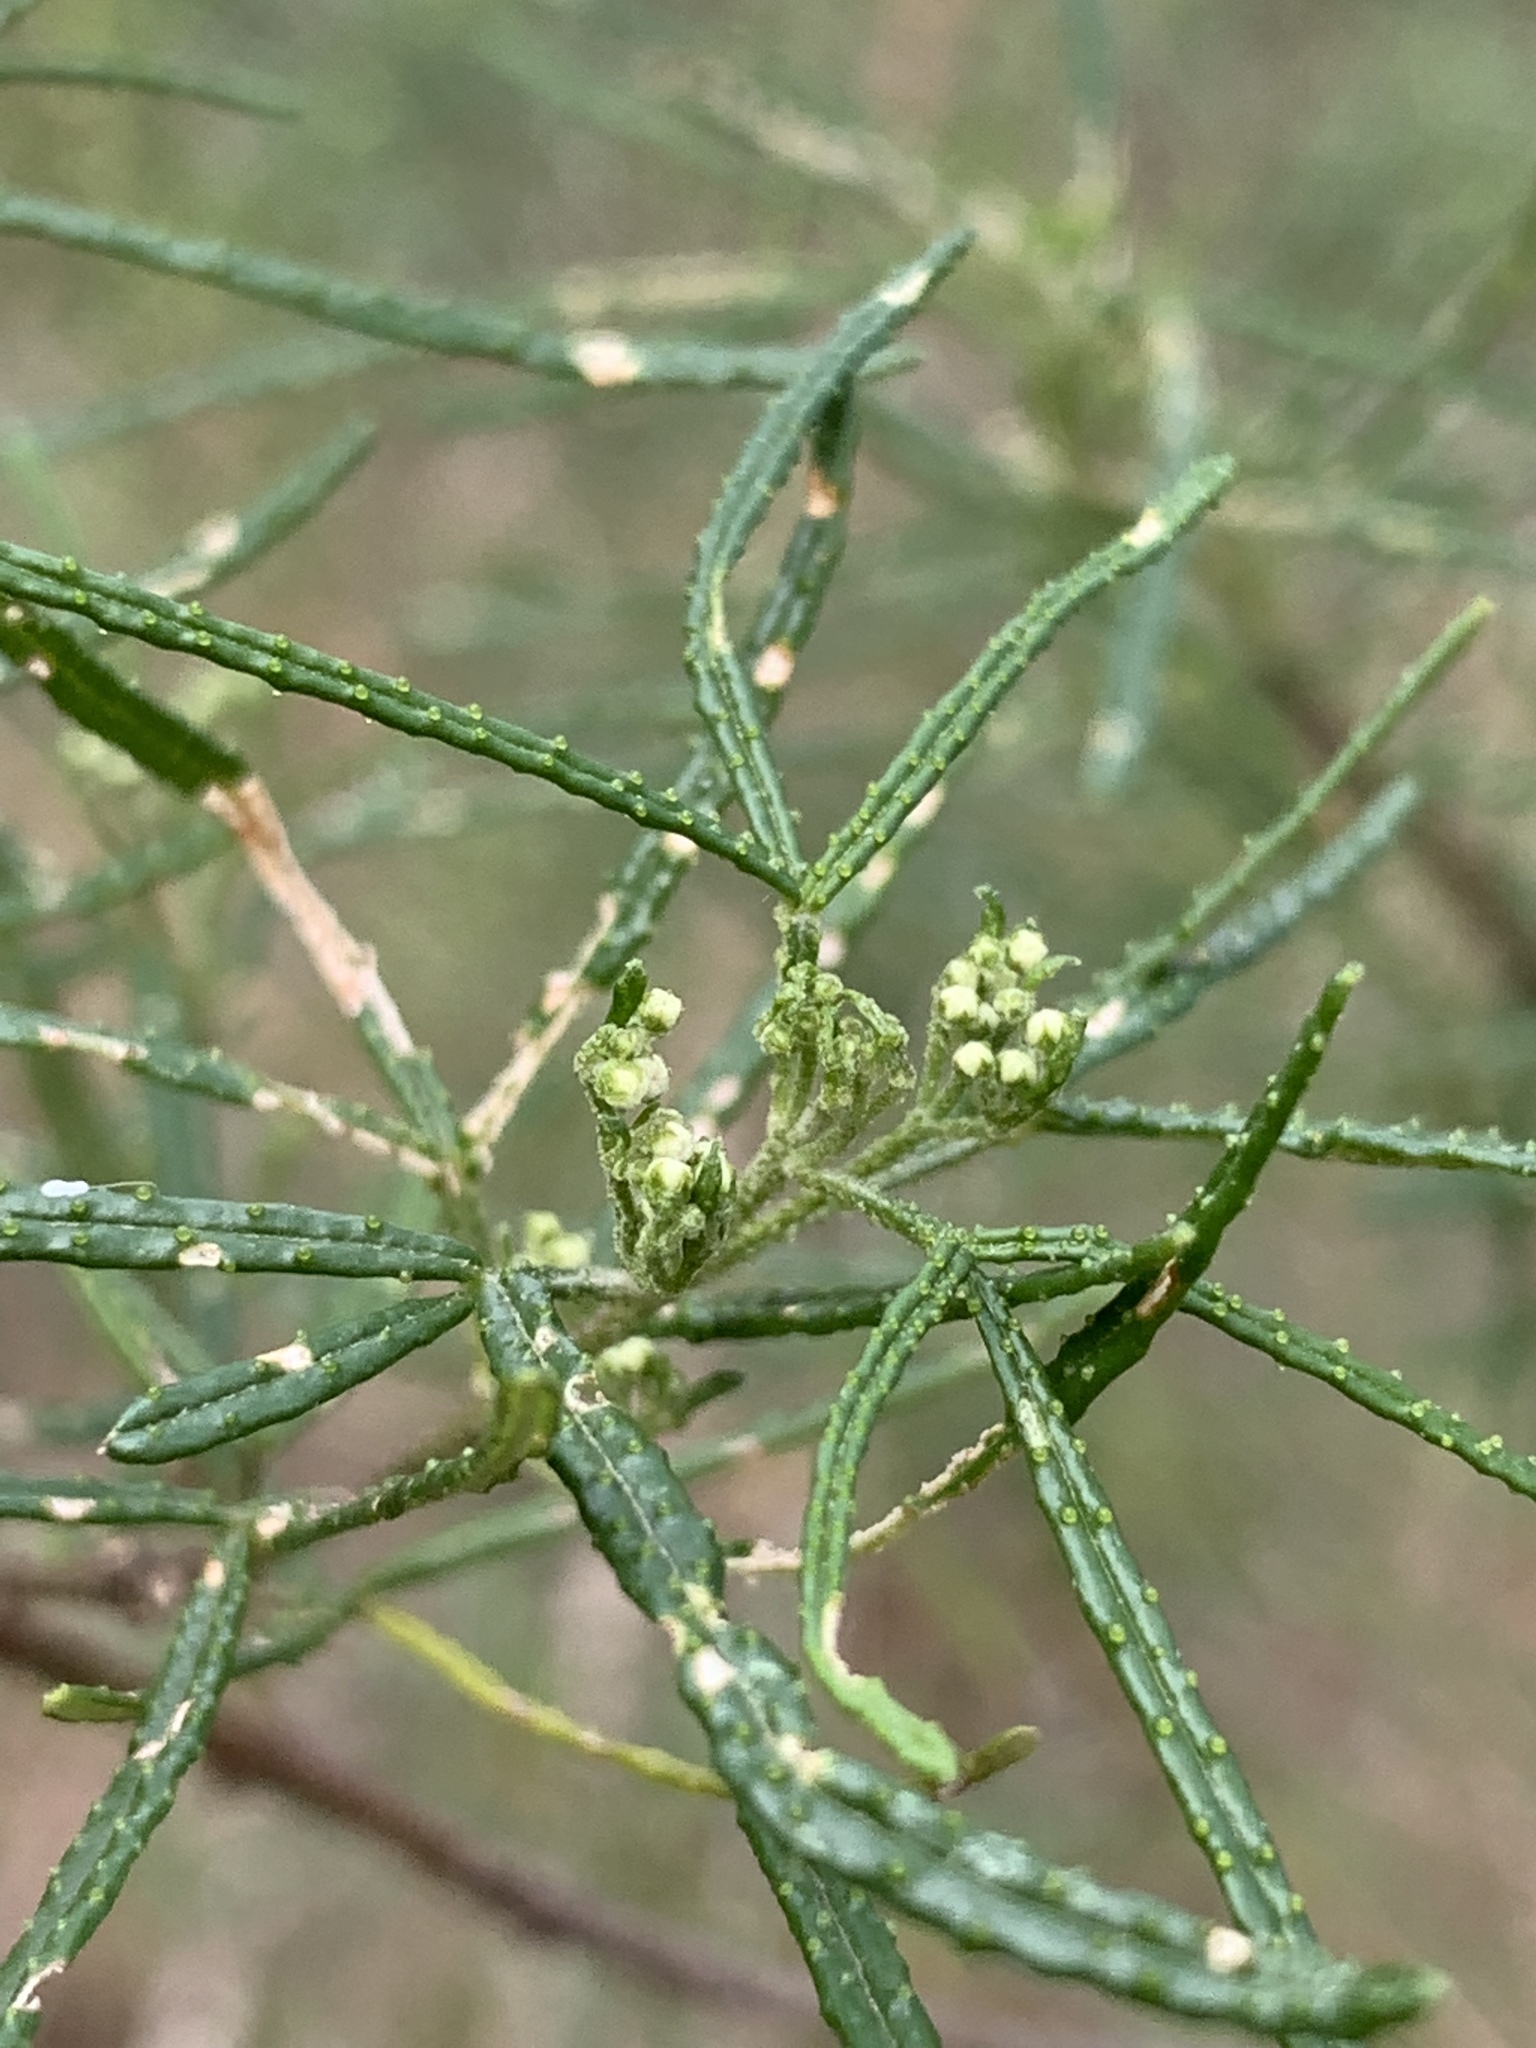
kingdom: Plantae
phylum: Tracheophyta
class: Magnoliopsida
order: Sapindales
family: Rutaceae
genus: Zieria
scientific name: Zieria granulata
